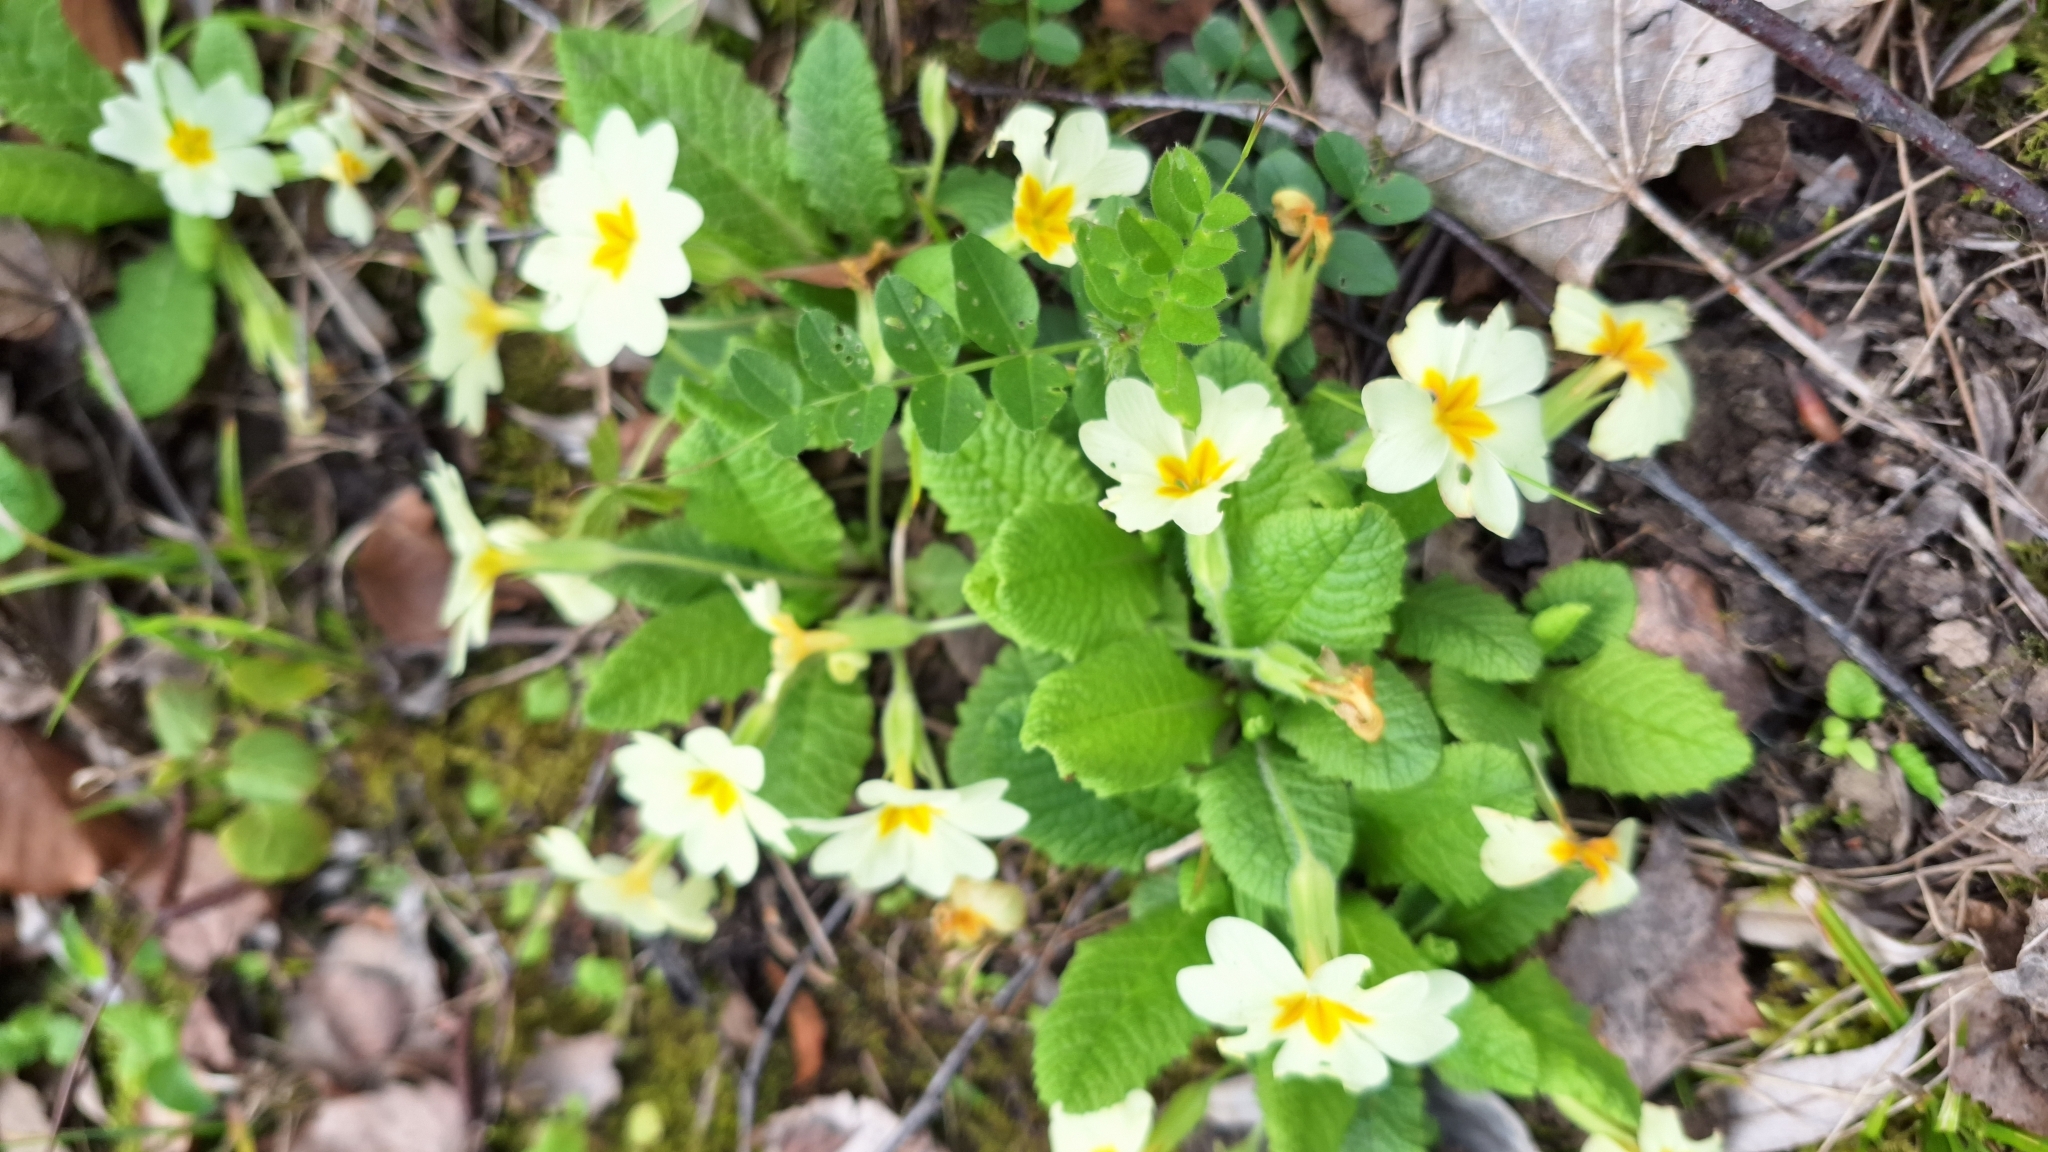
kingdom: Plantae
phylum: Tracheophyta
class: Magnoliopsida
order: Ericales
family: Primulaceae
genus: Primula
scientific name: Primula vulgaris
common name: Primrose
